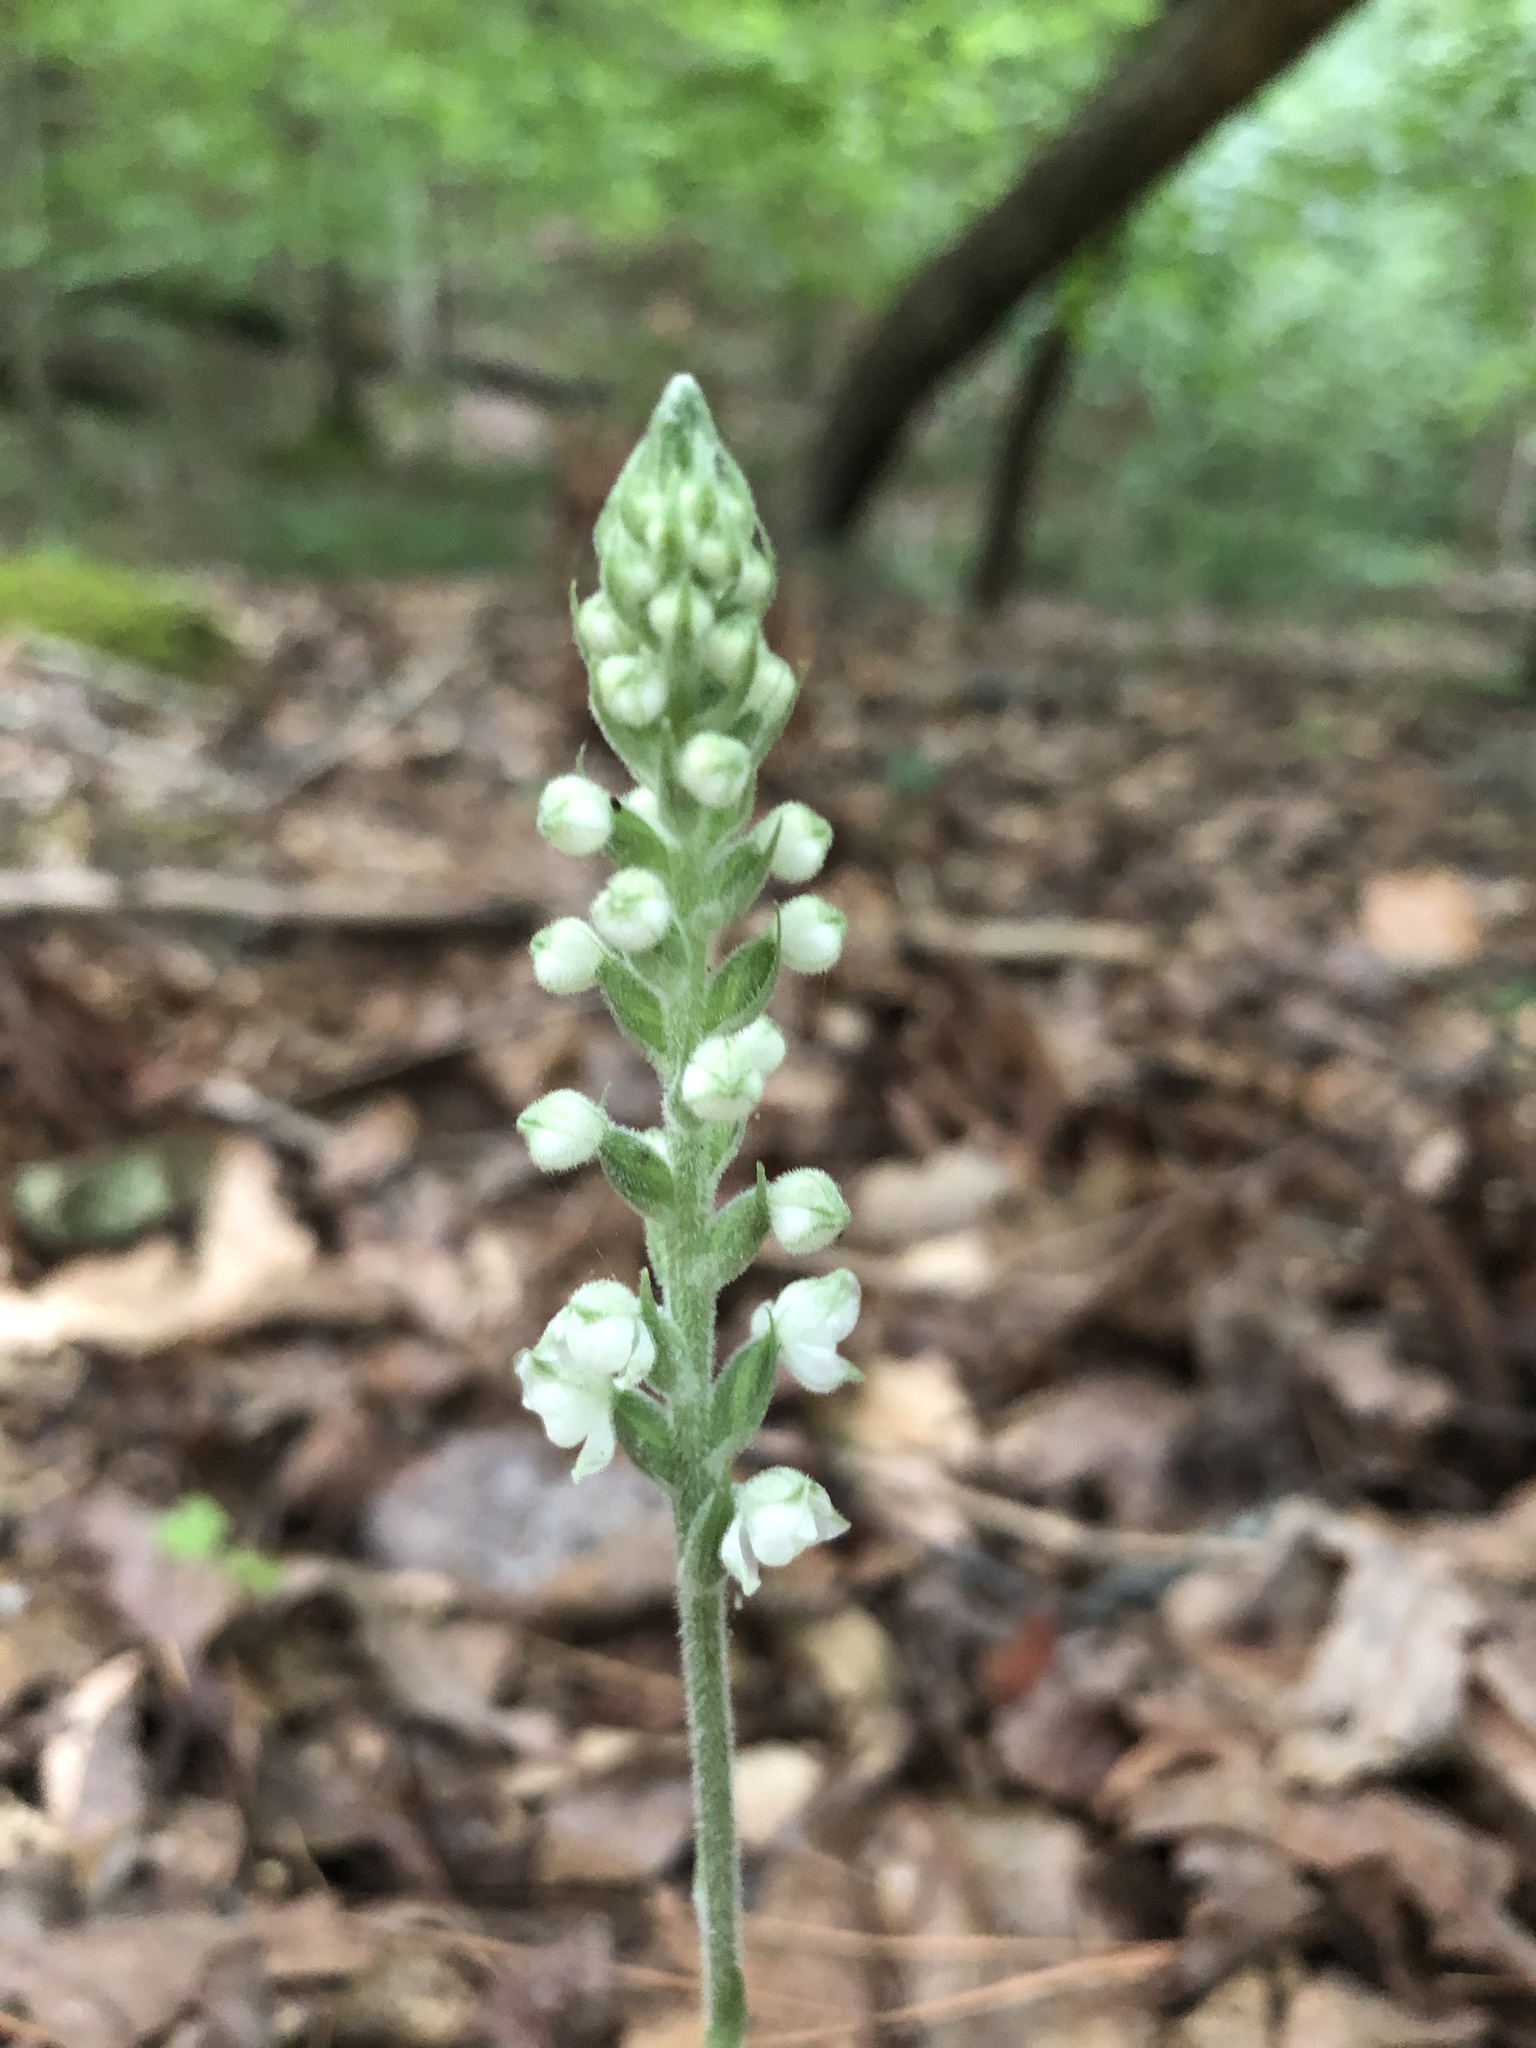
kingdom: Plantae
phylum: Tracheophyta
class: Liliopsida
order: Asparagales
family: Orchidaceae
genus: Goodyera
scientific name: Goodyera pubescens
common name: Downy rattlesnake-plantain
